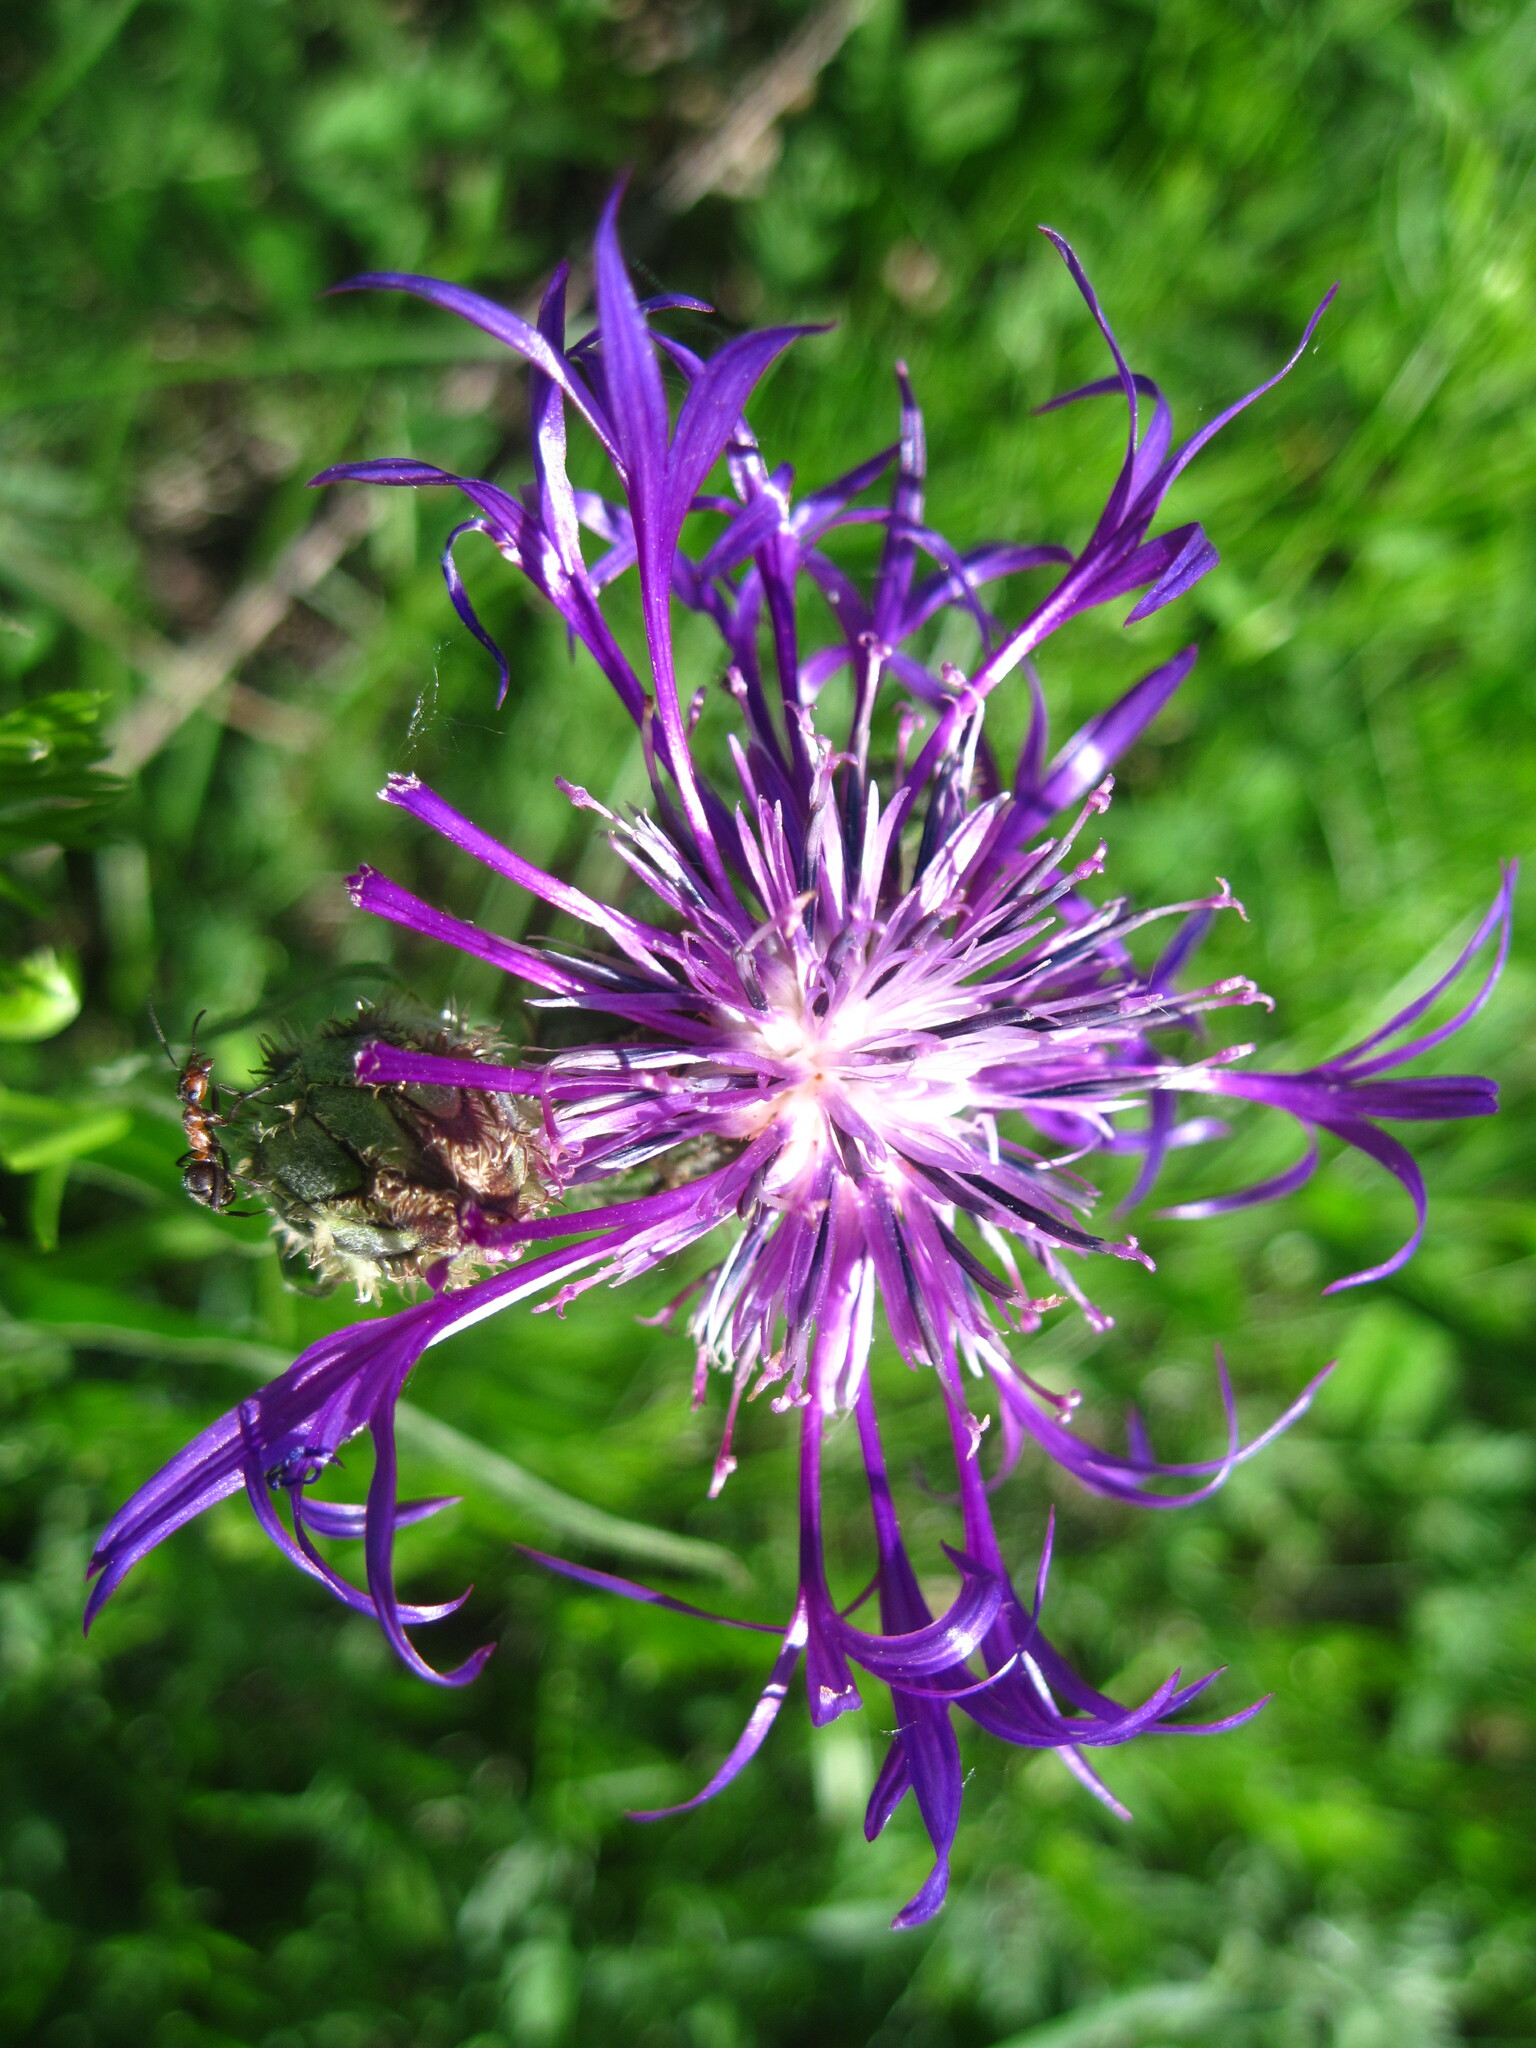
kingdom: Plantae
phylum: Tracheophyta
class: Magnoliopsida
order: Asterales
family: Asteraceae
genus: Centaurea
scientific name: Centaurea tanaitica
